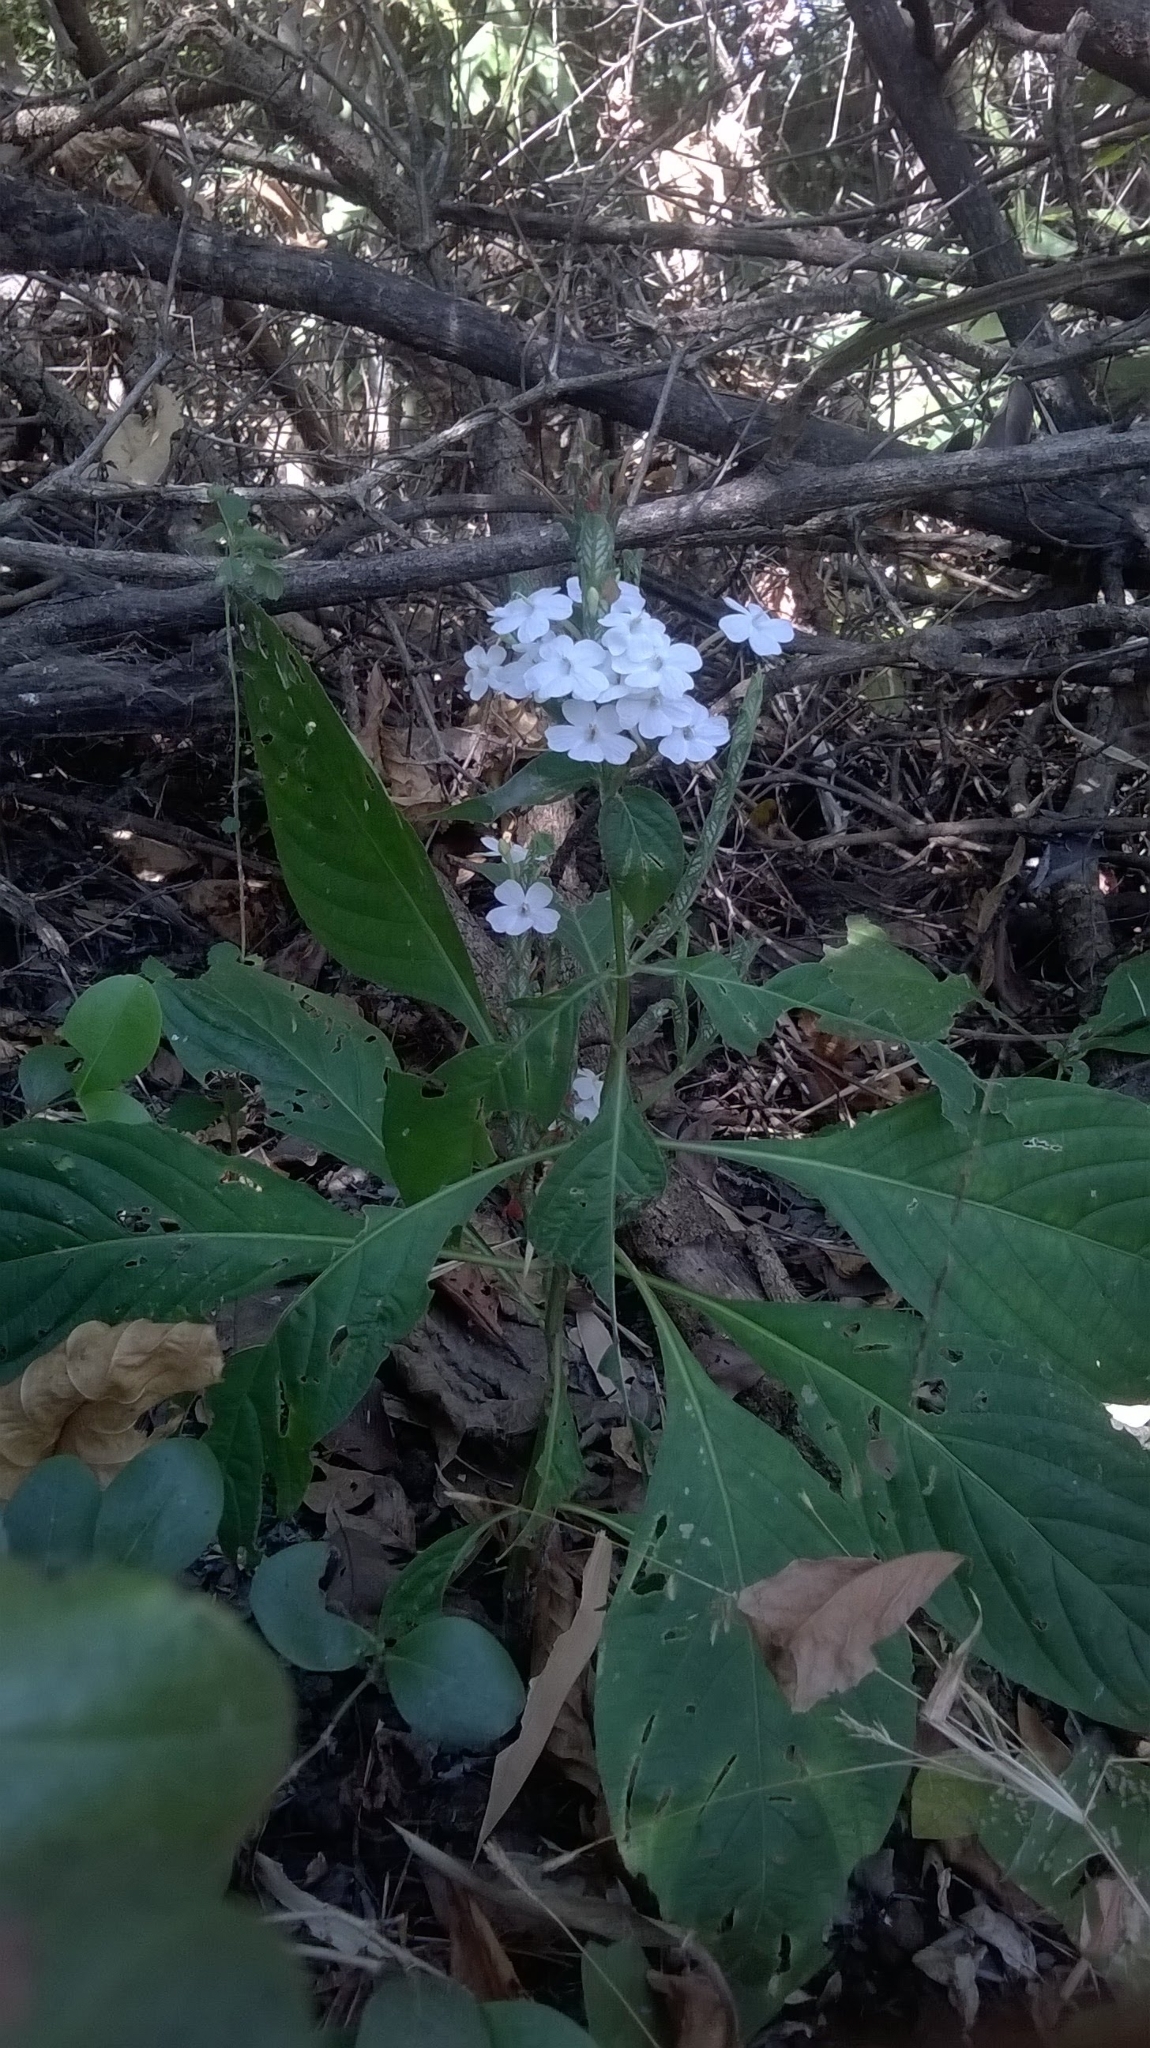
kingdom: Plantae
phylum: Tracheophyta
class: Magnoliopsida
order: Lamiales
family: Acanthaceae
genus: Eranthemum
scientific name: Eranthemum roseum
